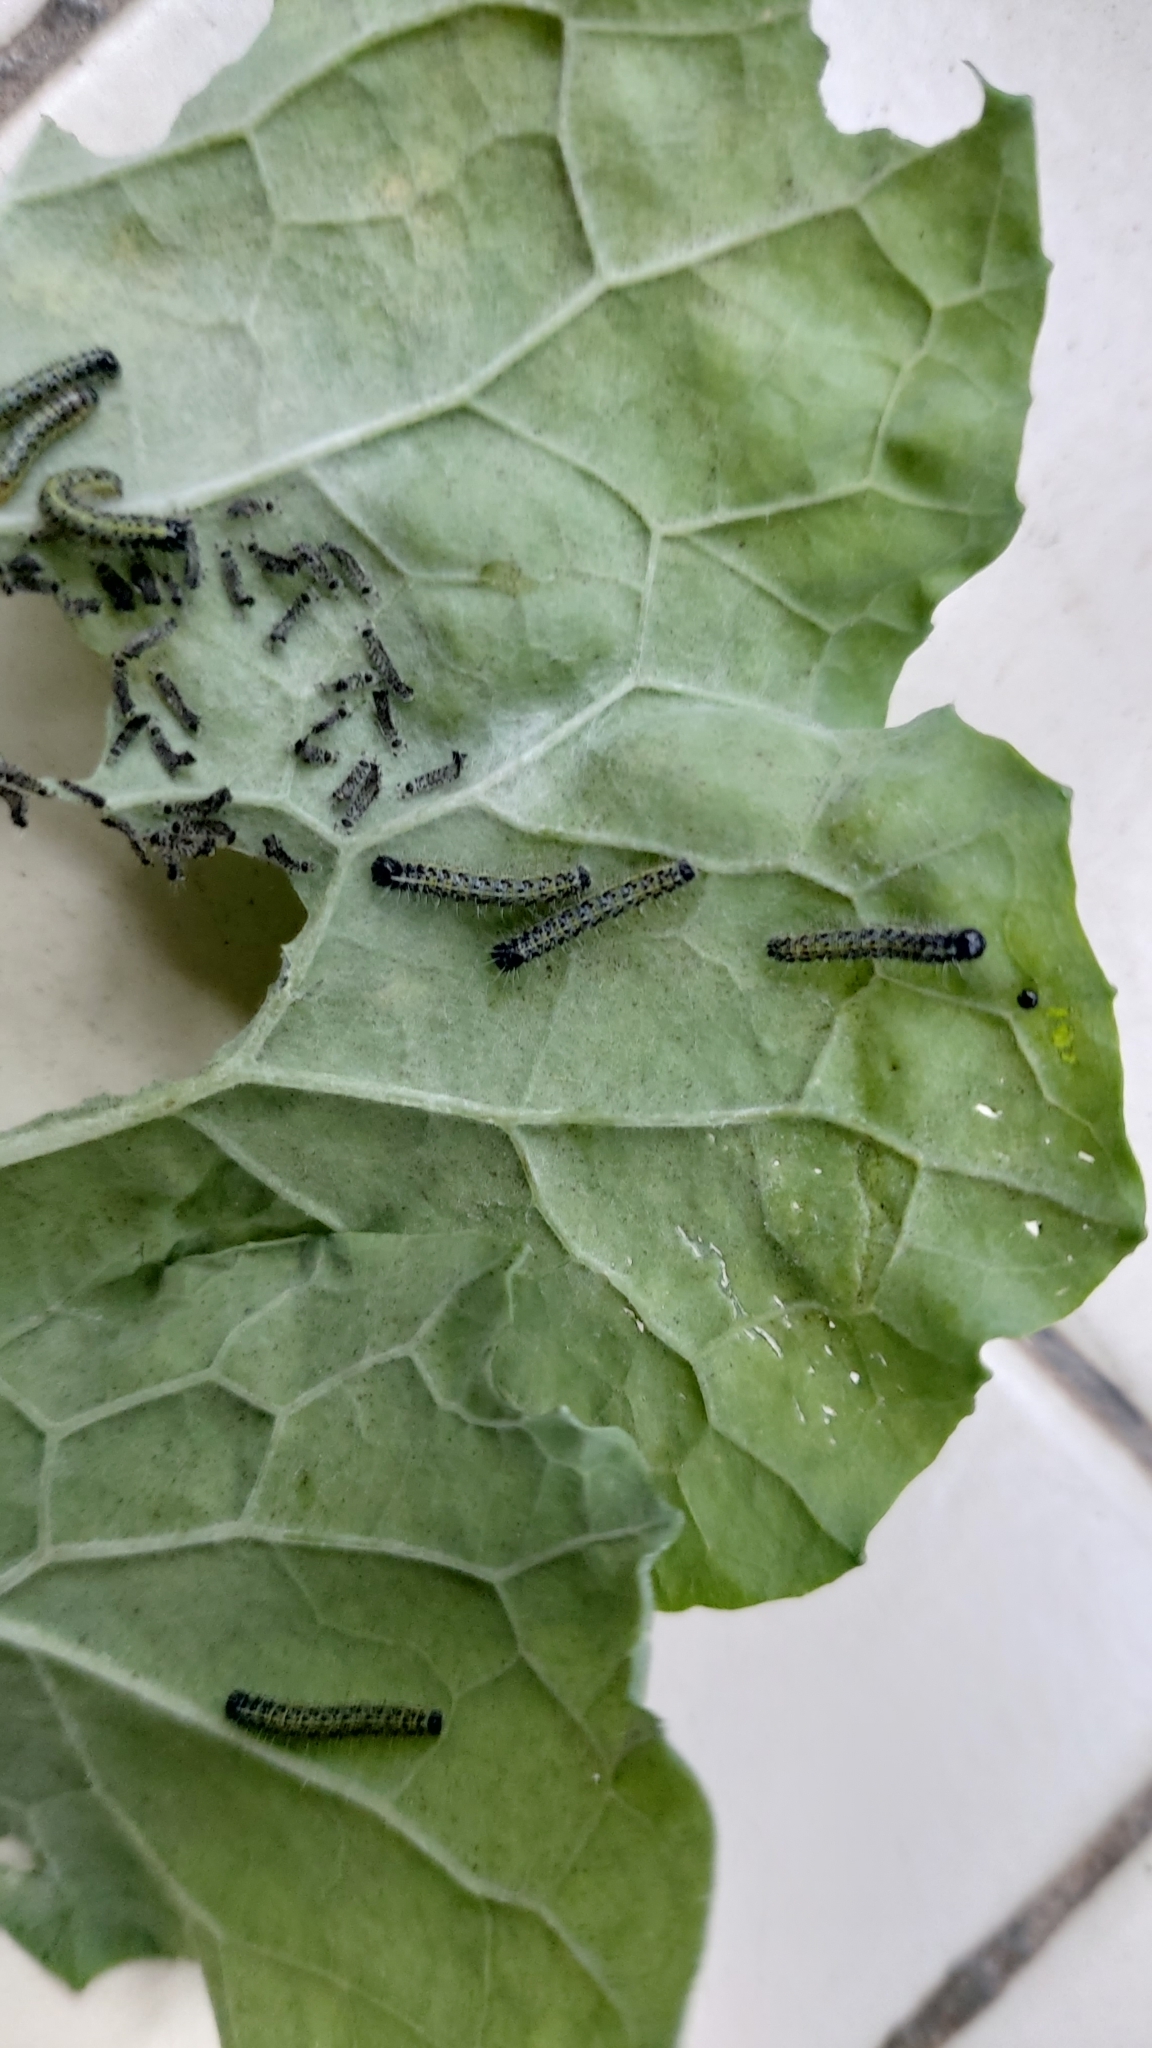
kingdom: Animalia
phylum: Arthropoda
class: Insecta
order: Lepidoptera
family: Pieridae
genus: Pieris
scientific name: Pieris brassicae
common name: Large white
